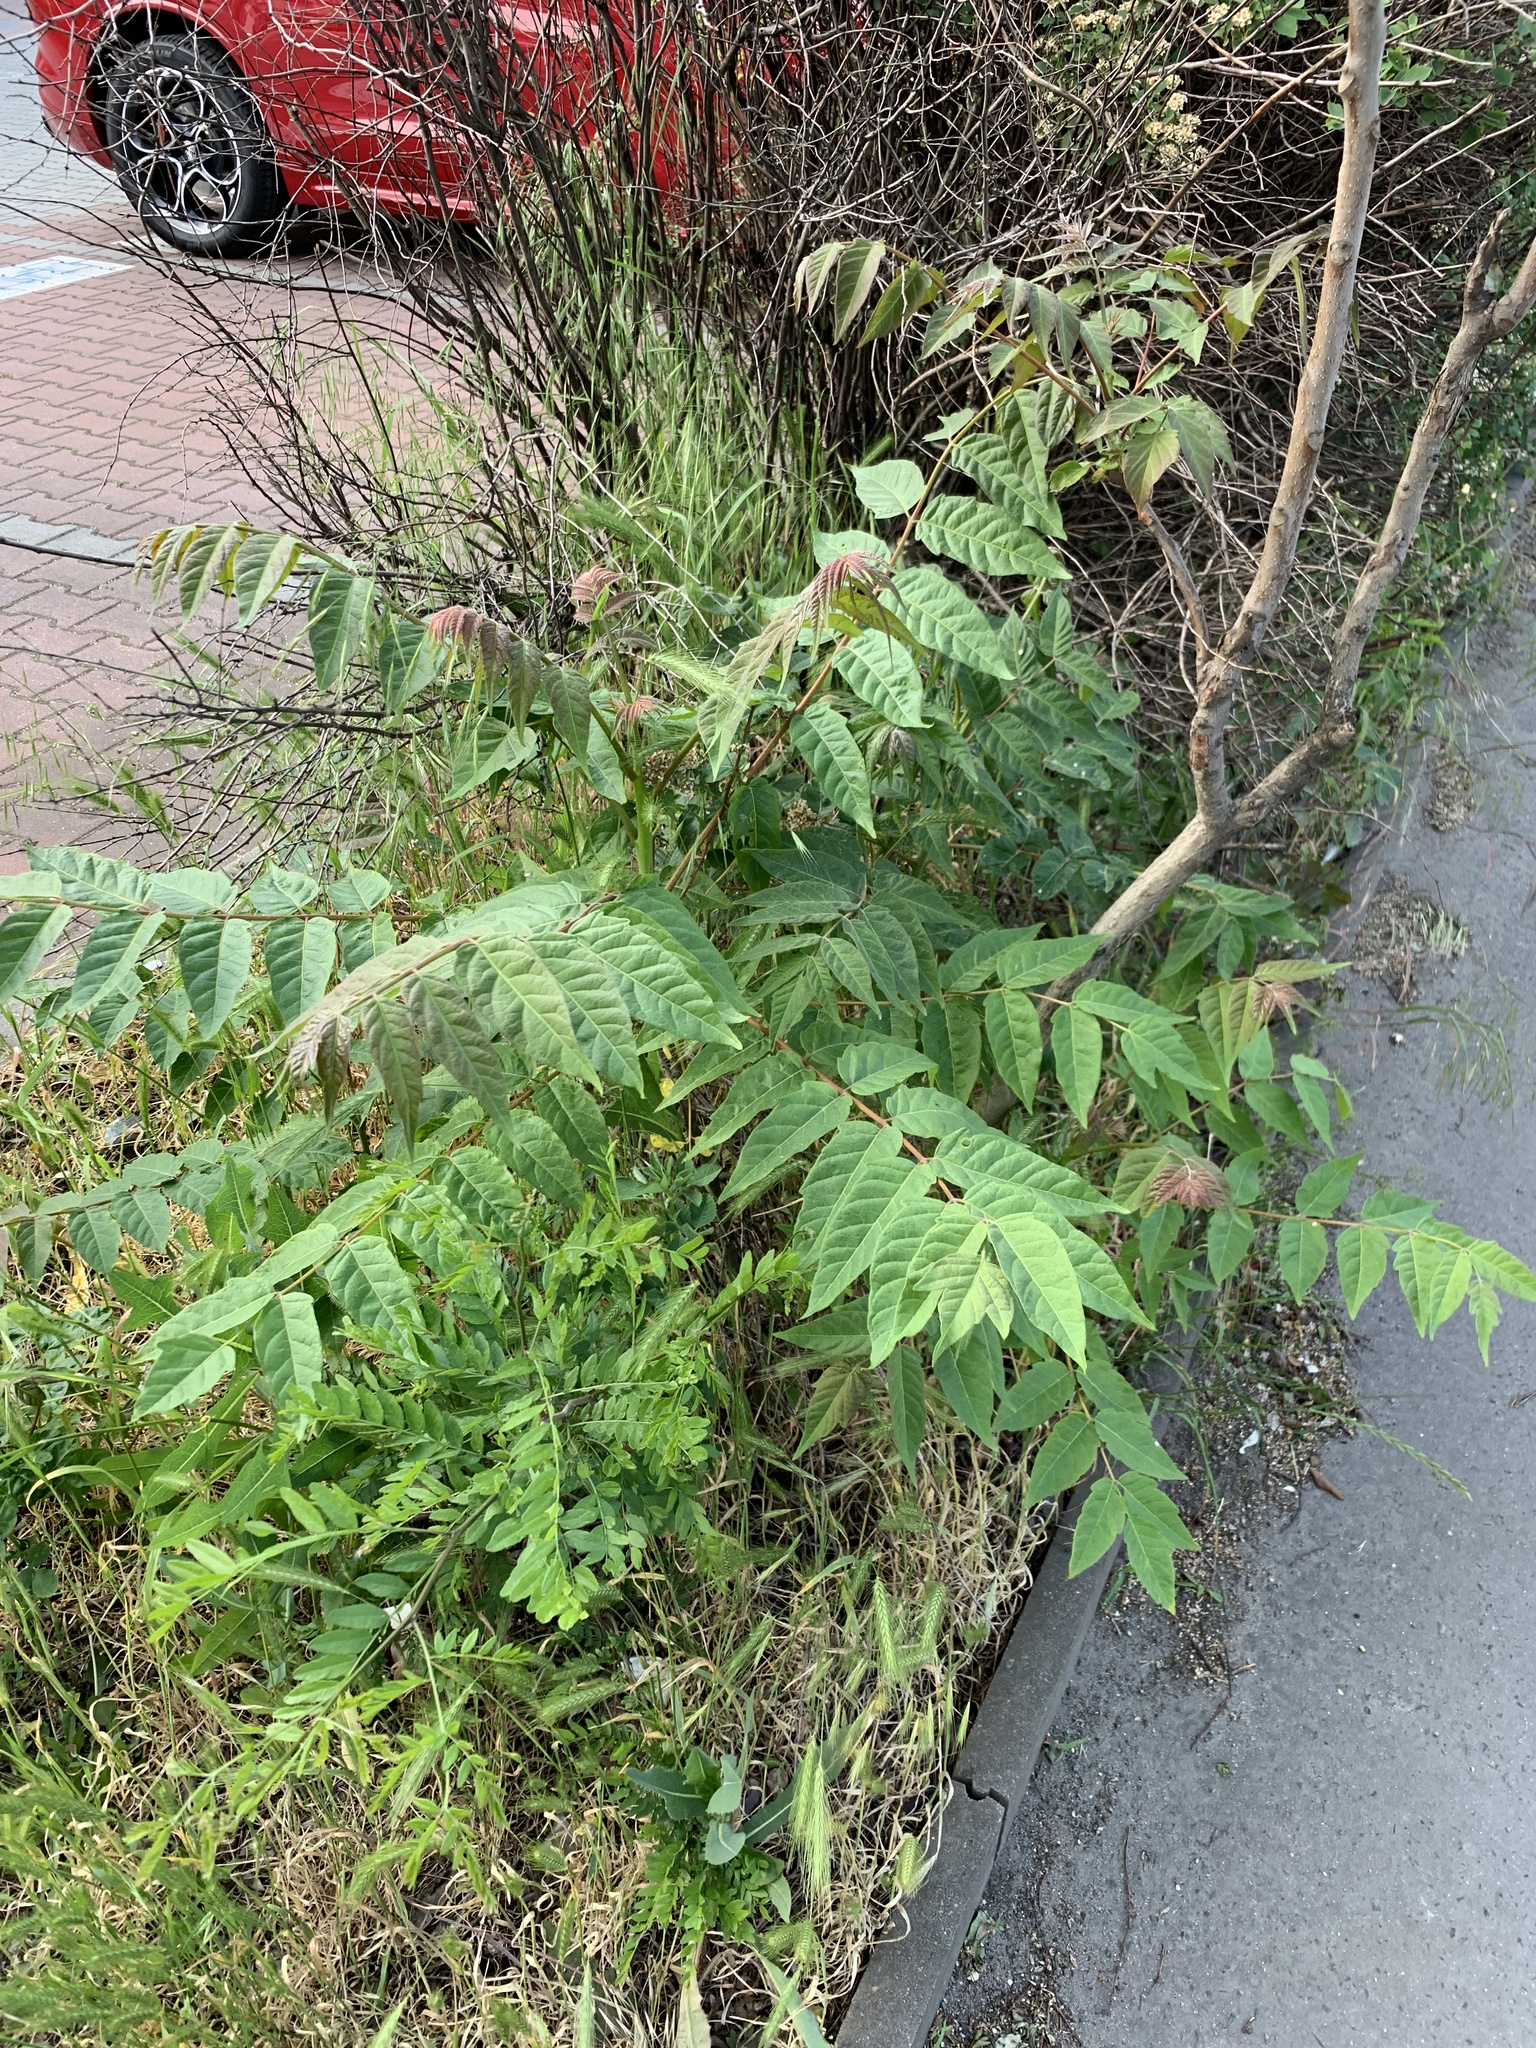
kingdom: Plantae
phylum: Tracheophyta
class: Magnoliopsida
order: Sapindales
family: Simaroubaceae
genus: Ailanthus
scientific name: Ailanthus altissima
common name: Tree-of-heaven
